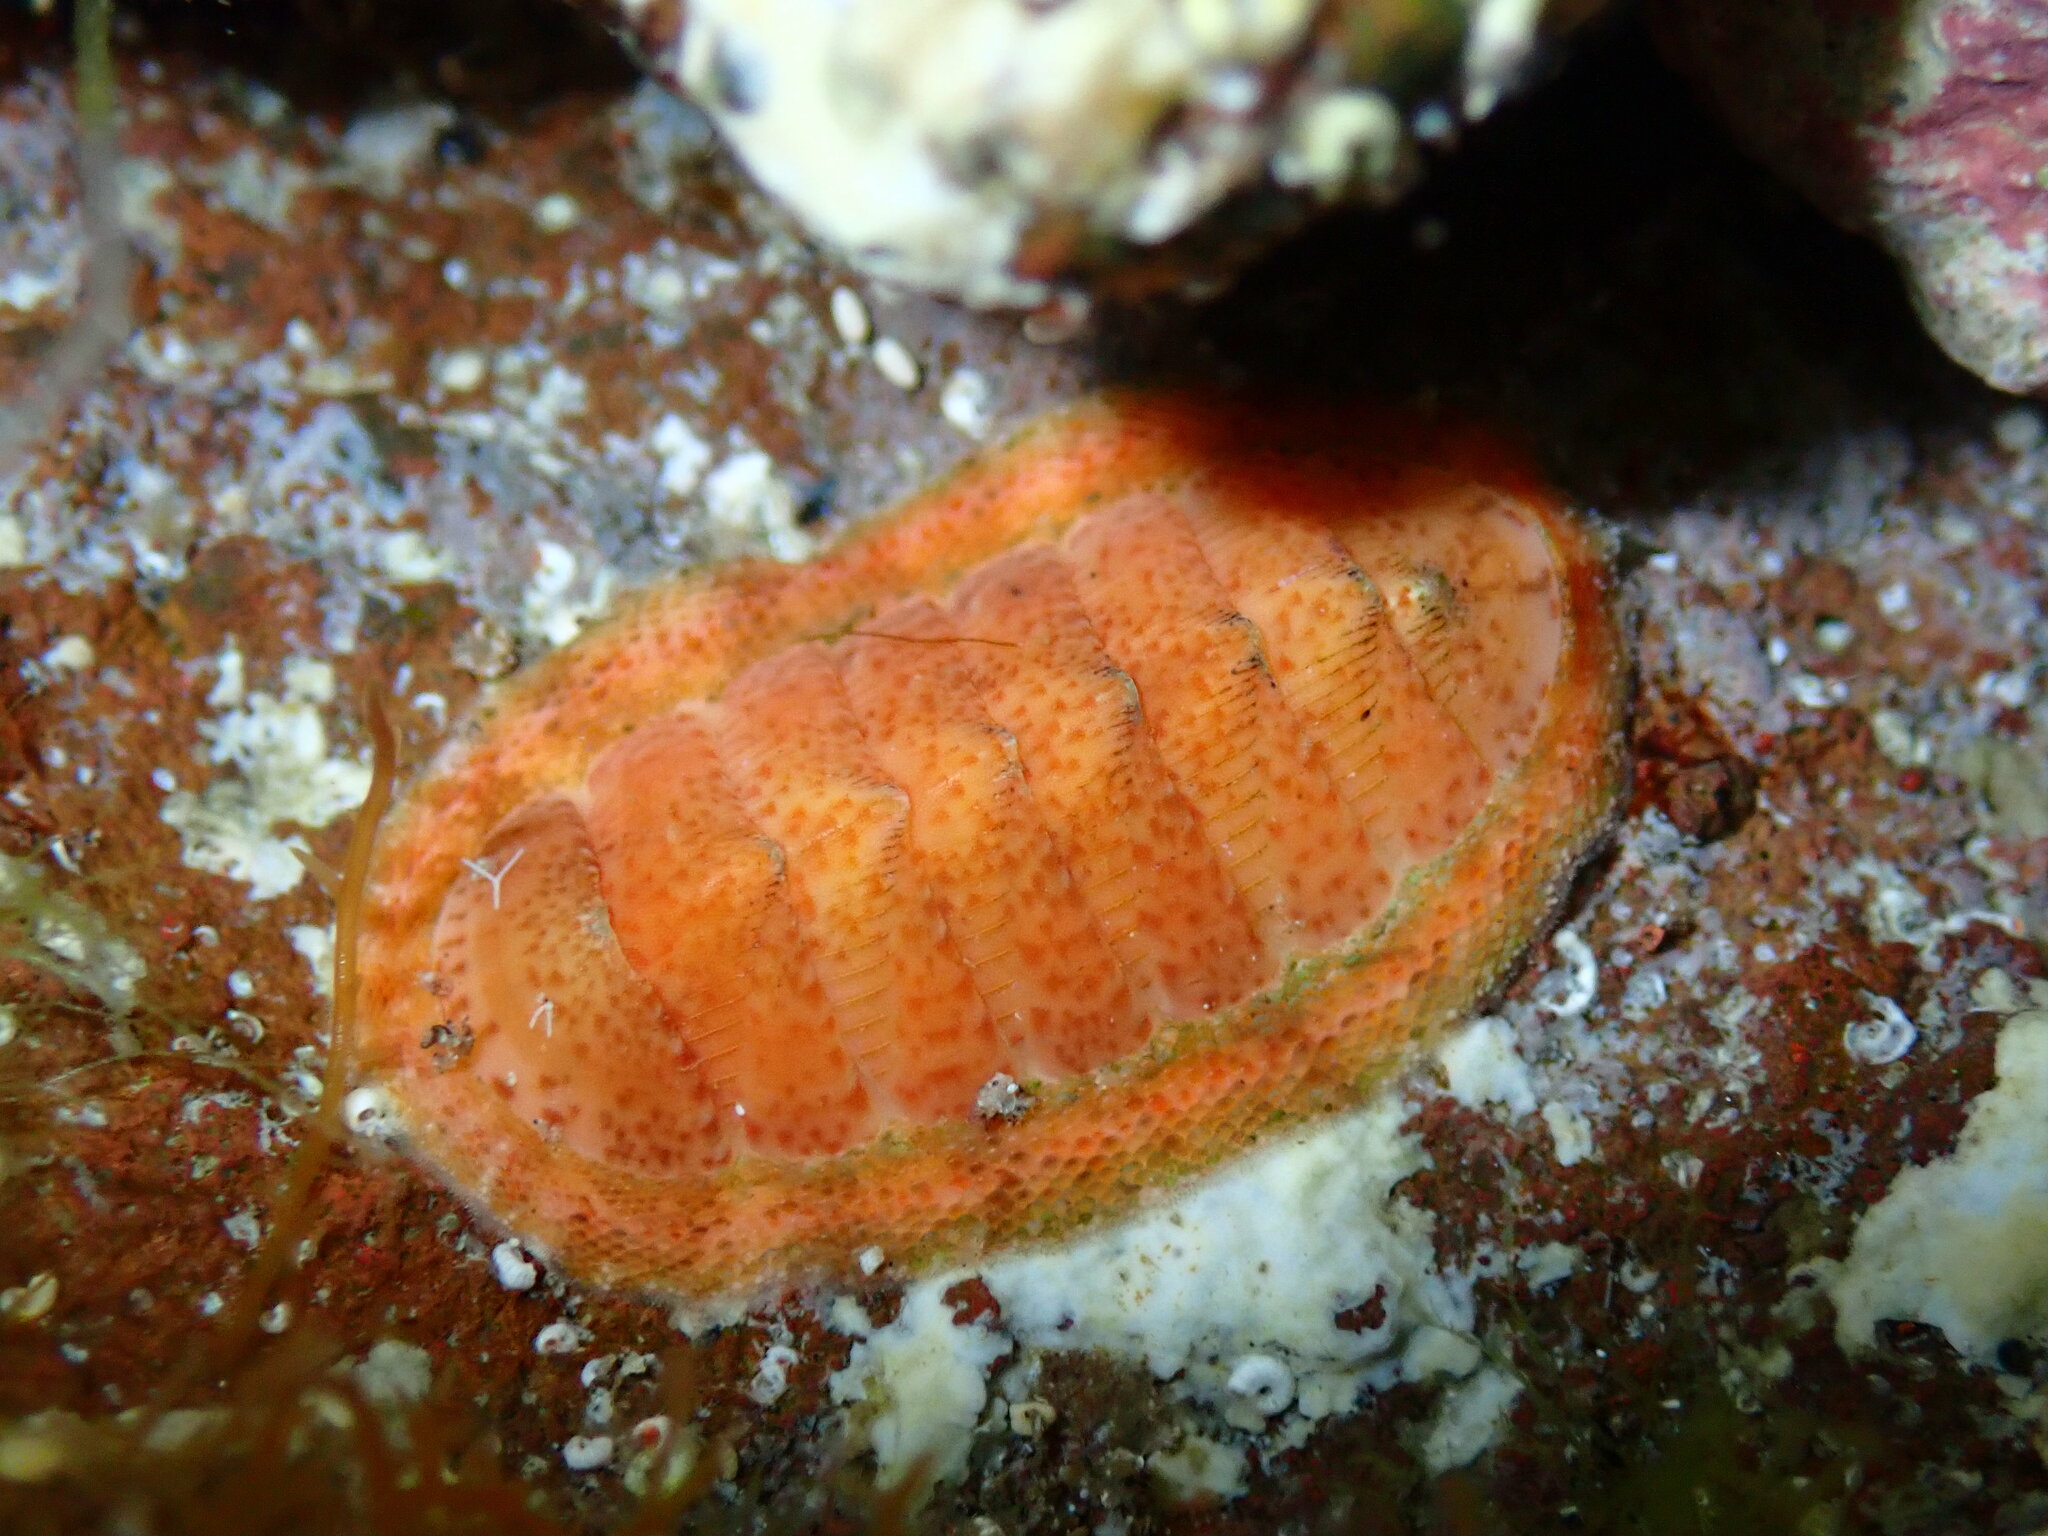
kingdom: Animalia
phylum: Mollusca
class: Polyplacophora
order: Chitonida
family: Chitonidae
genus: Rhyssoplax
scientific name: Rhyssoplax canariensis
